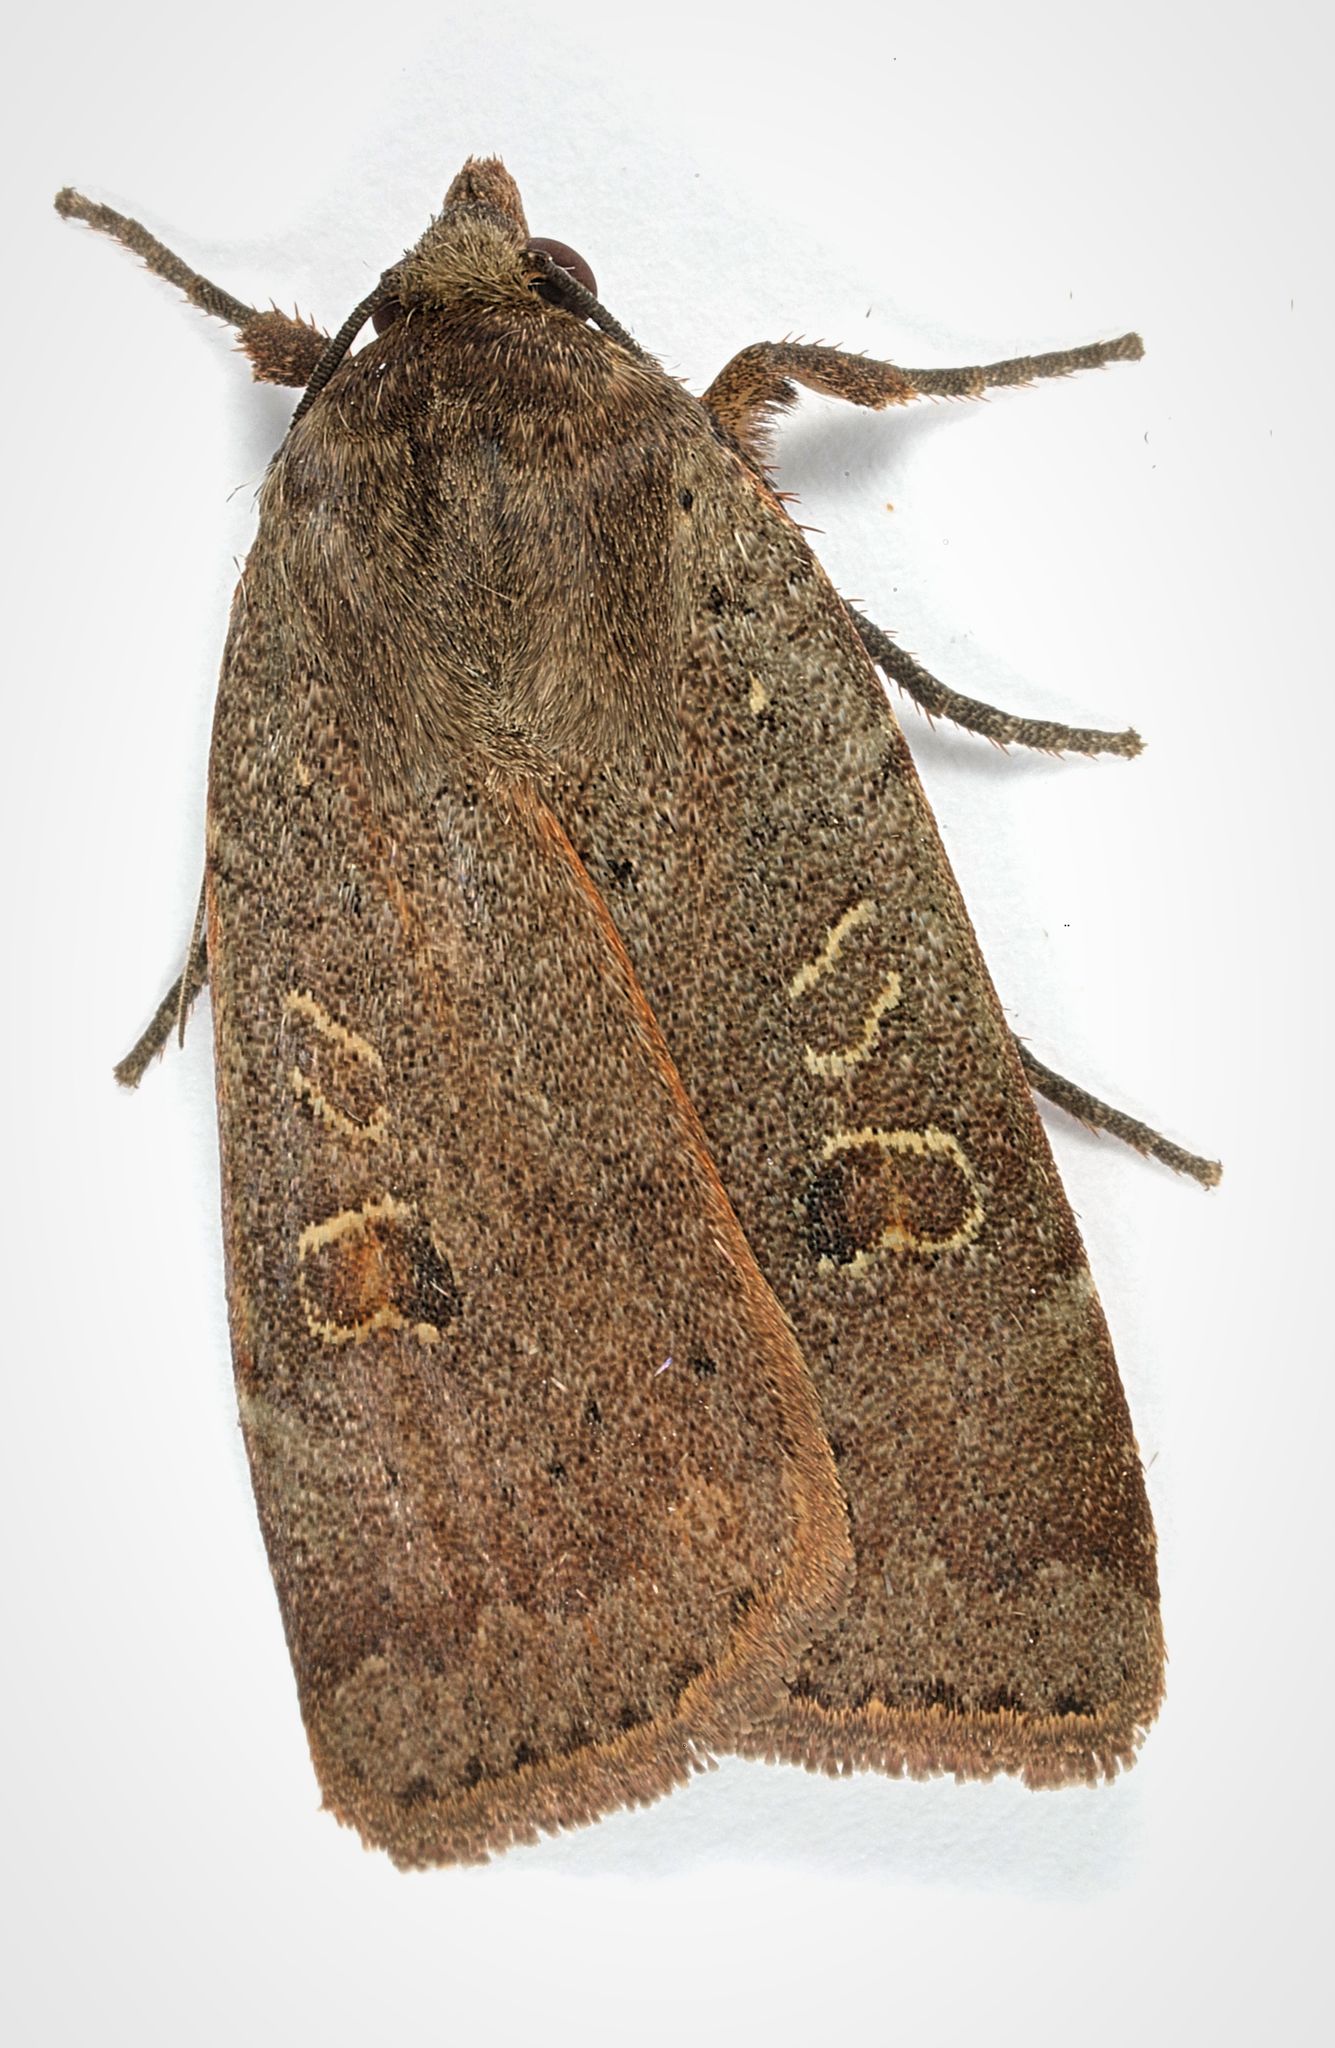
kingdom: Animalia
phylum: Arthropoda
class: Insecta
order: Lepidoptera
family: Noctuidae
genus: Noctua
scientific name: Noctua comes
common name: Lesser yellow underwing
